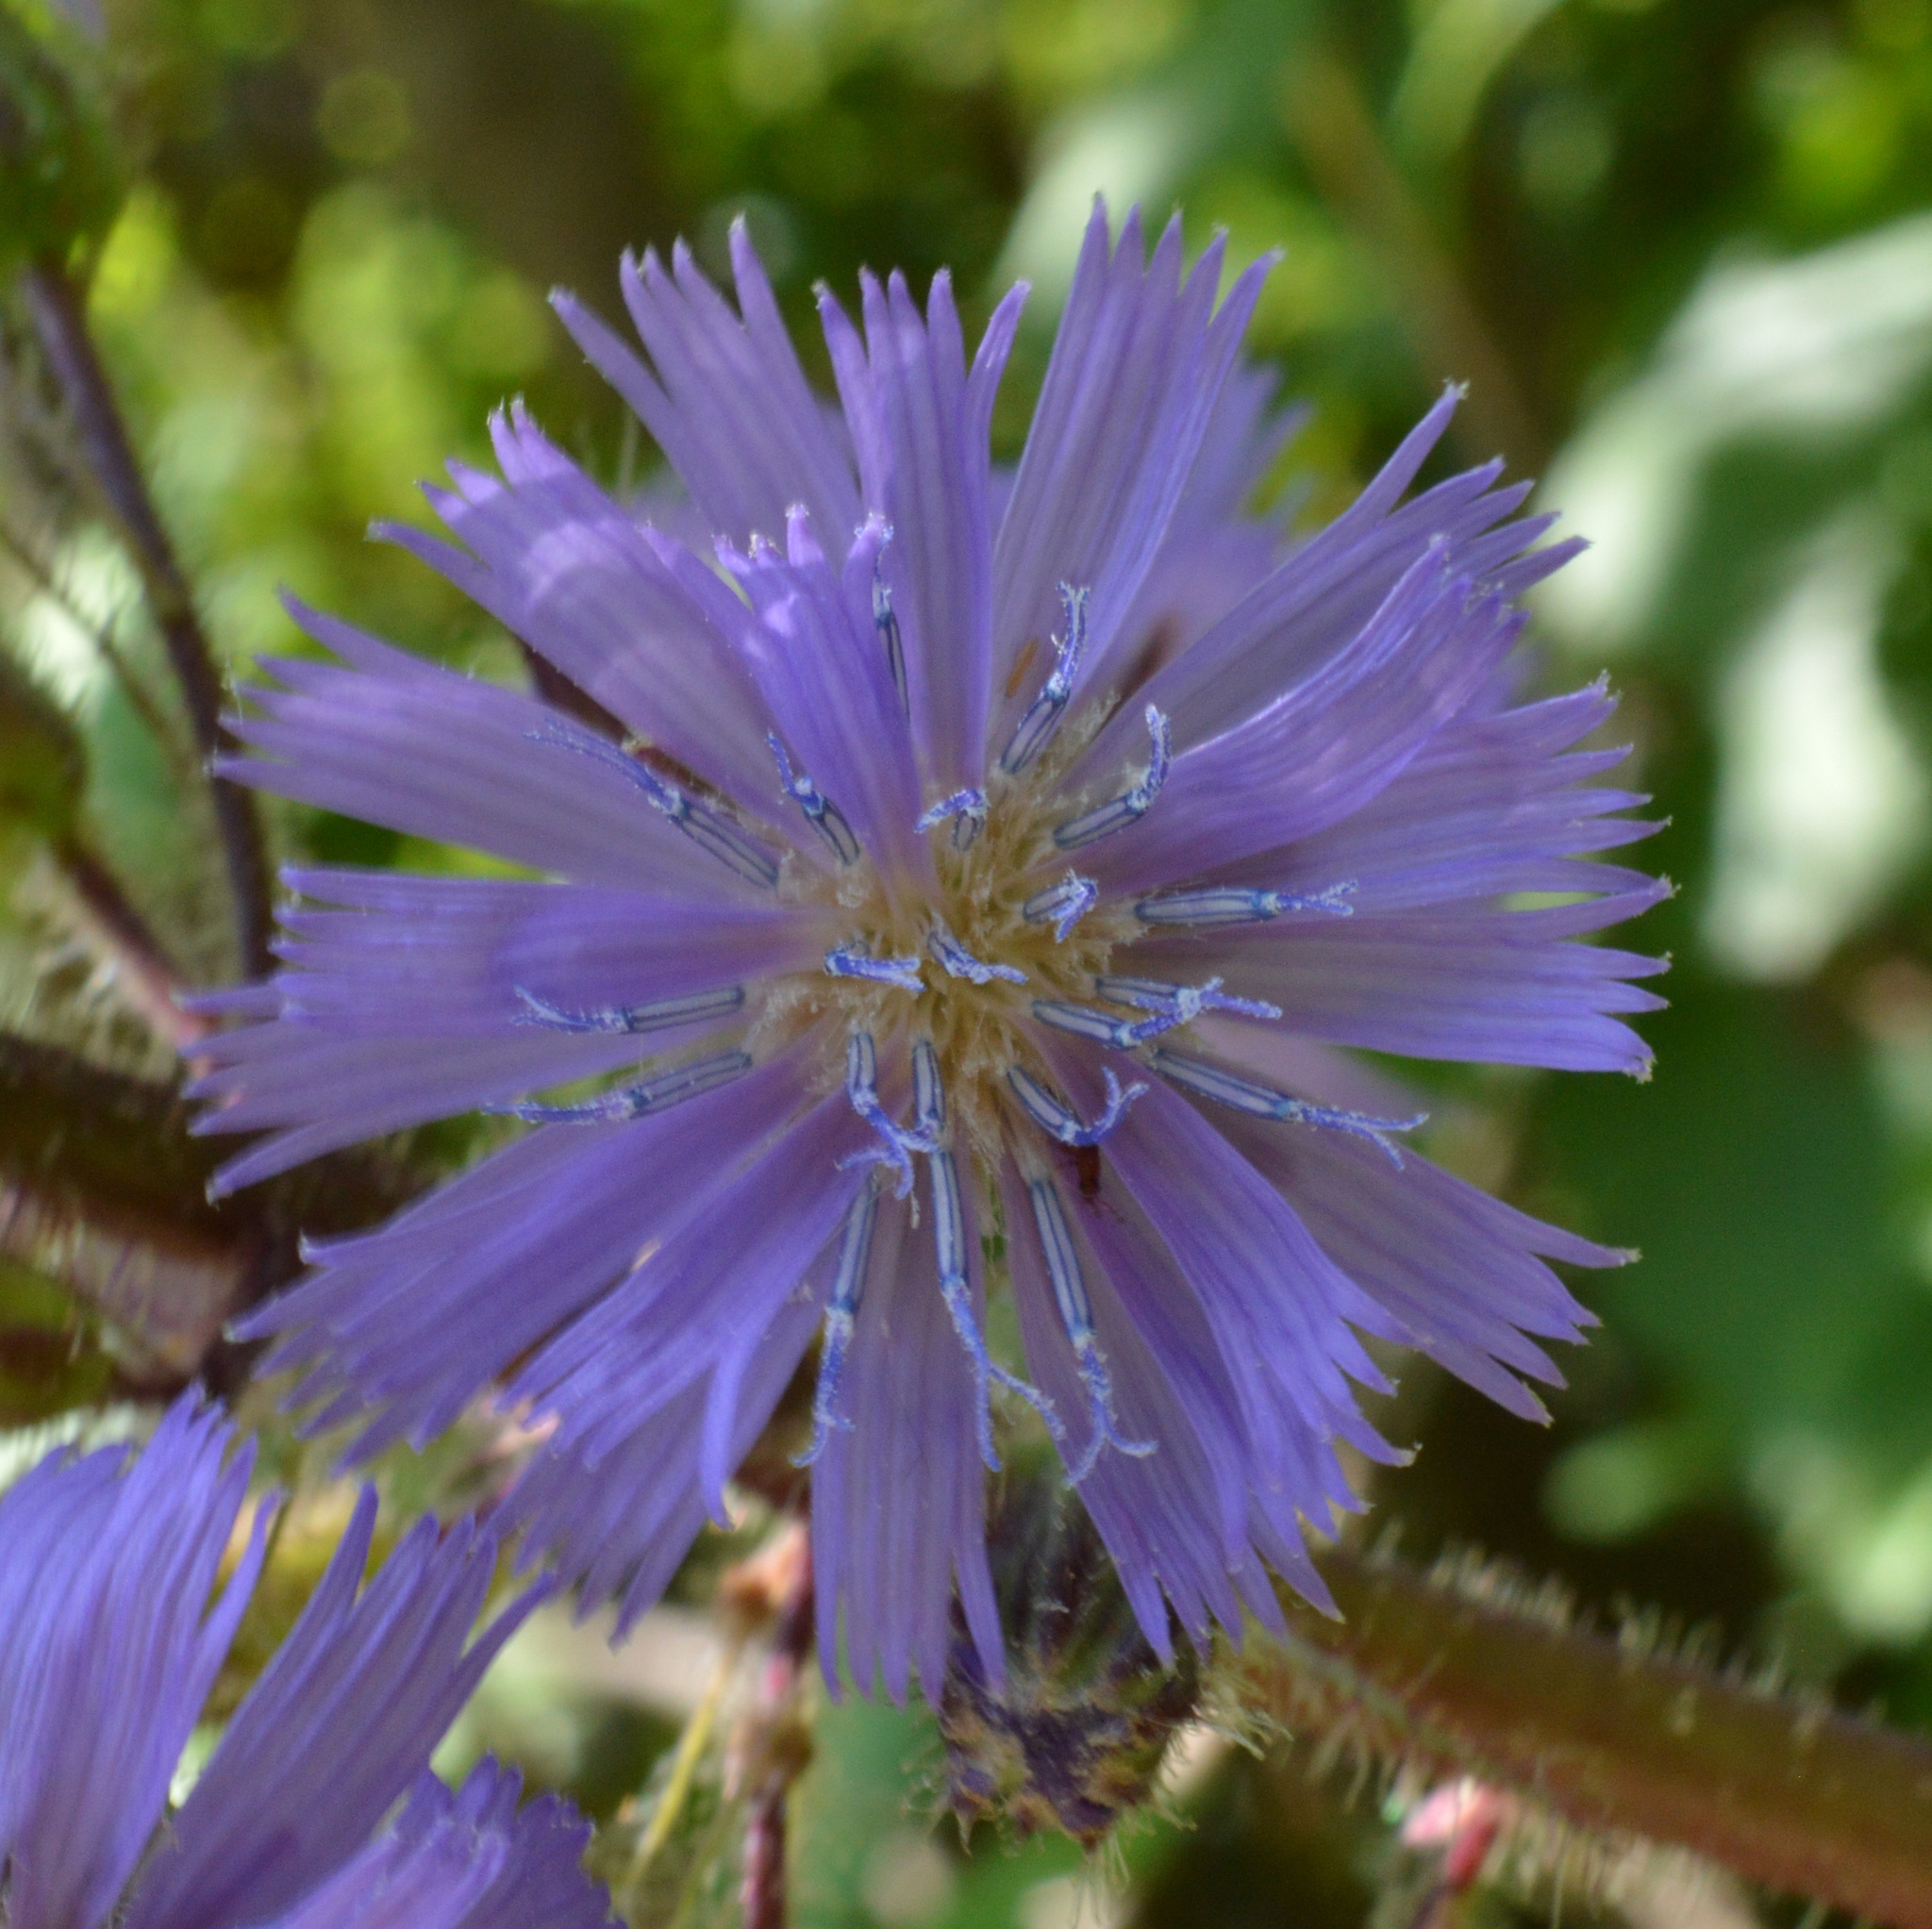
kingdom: Plantae
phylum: Tracheophyta
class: Magnoliopsida
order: Asterales
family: Asteraceae
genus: Cicerbita
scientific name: Cicerbita alpina
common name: Alpine blue-sow-thistle
